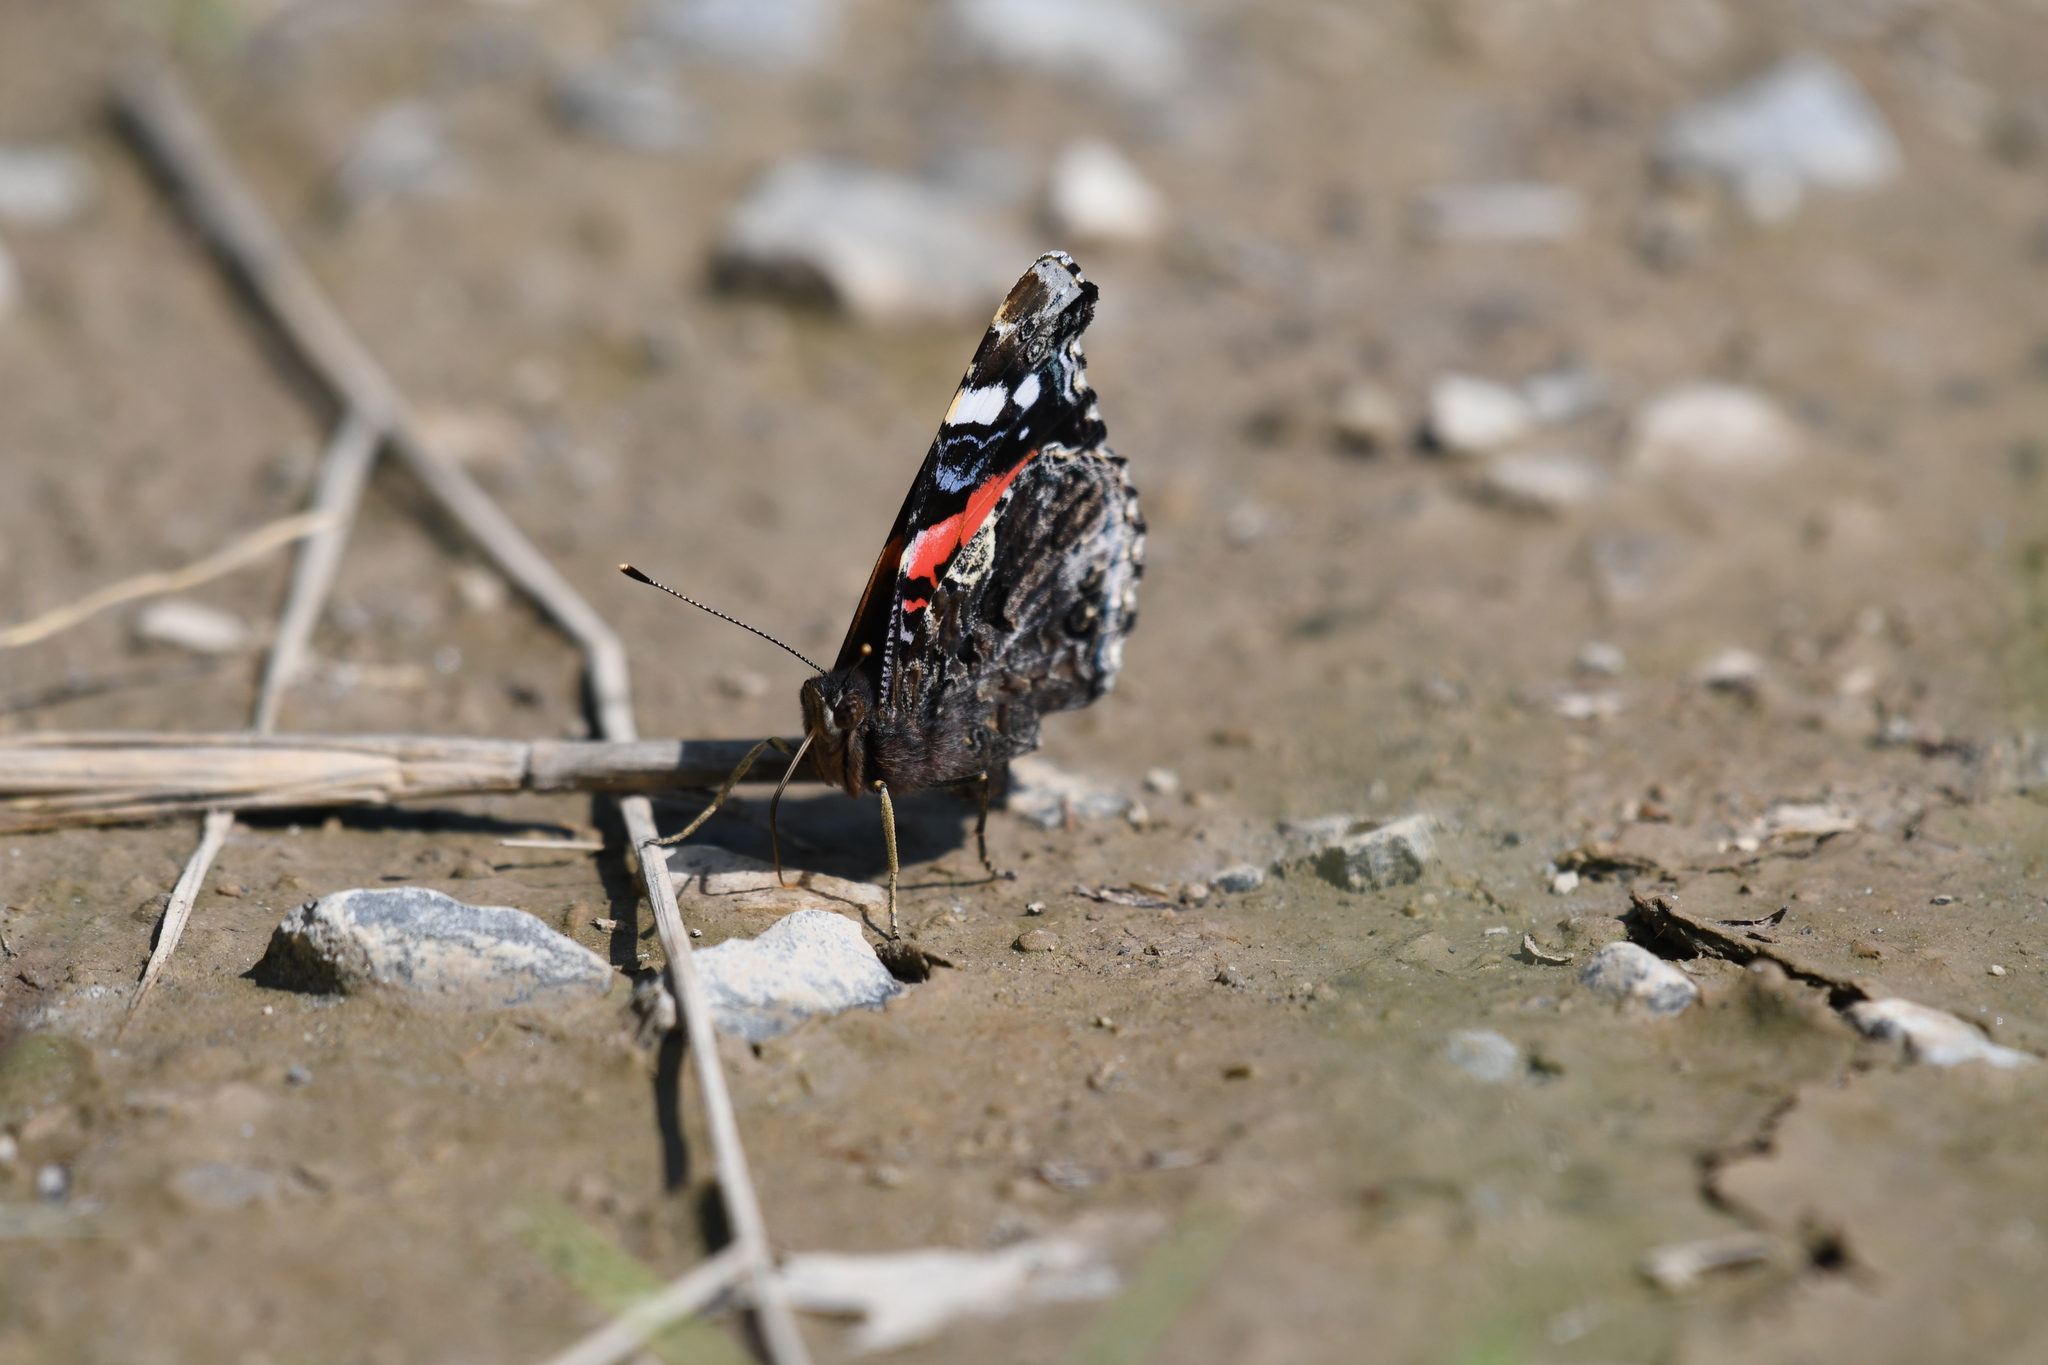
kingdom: Animalia
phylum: Arthropoda
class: Insecta
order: Lepidoptera
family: Nymphalidae
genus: Vanessa
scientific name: Vanessa atalanta
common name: Red admiral
